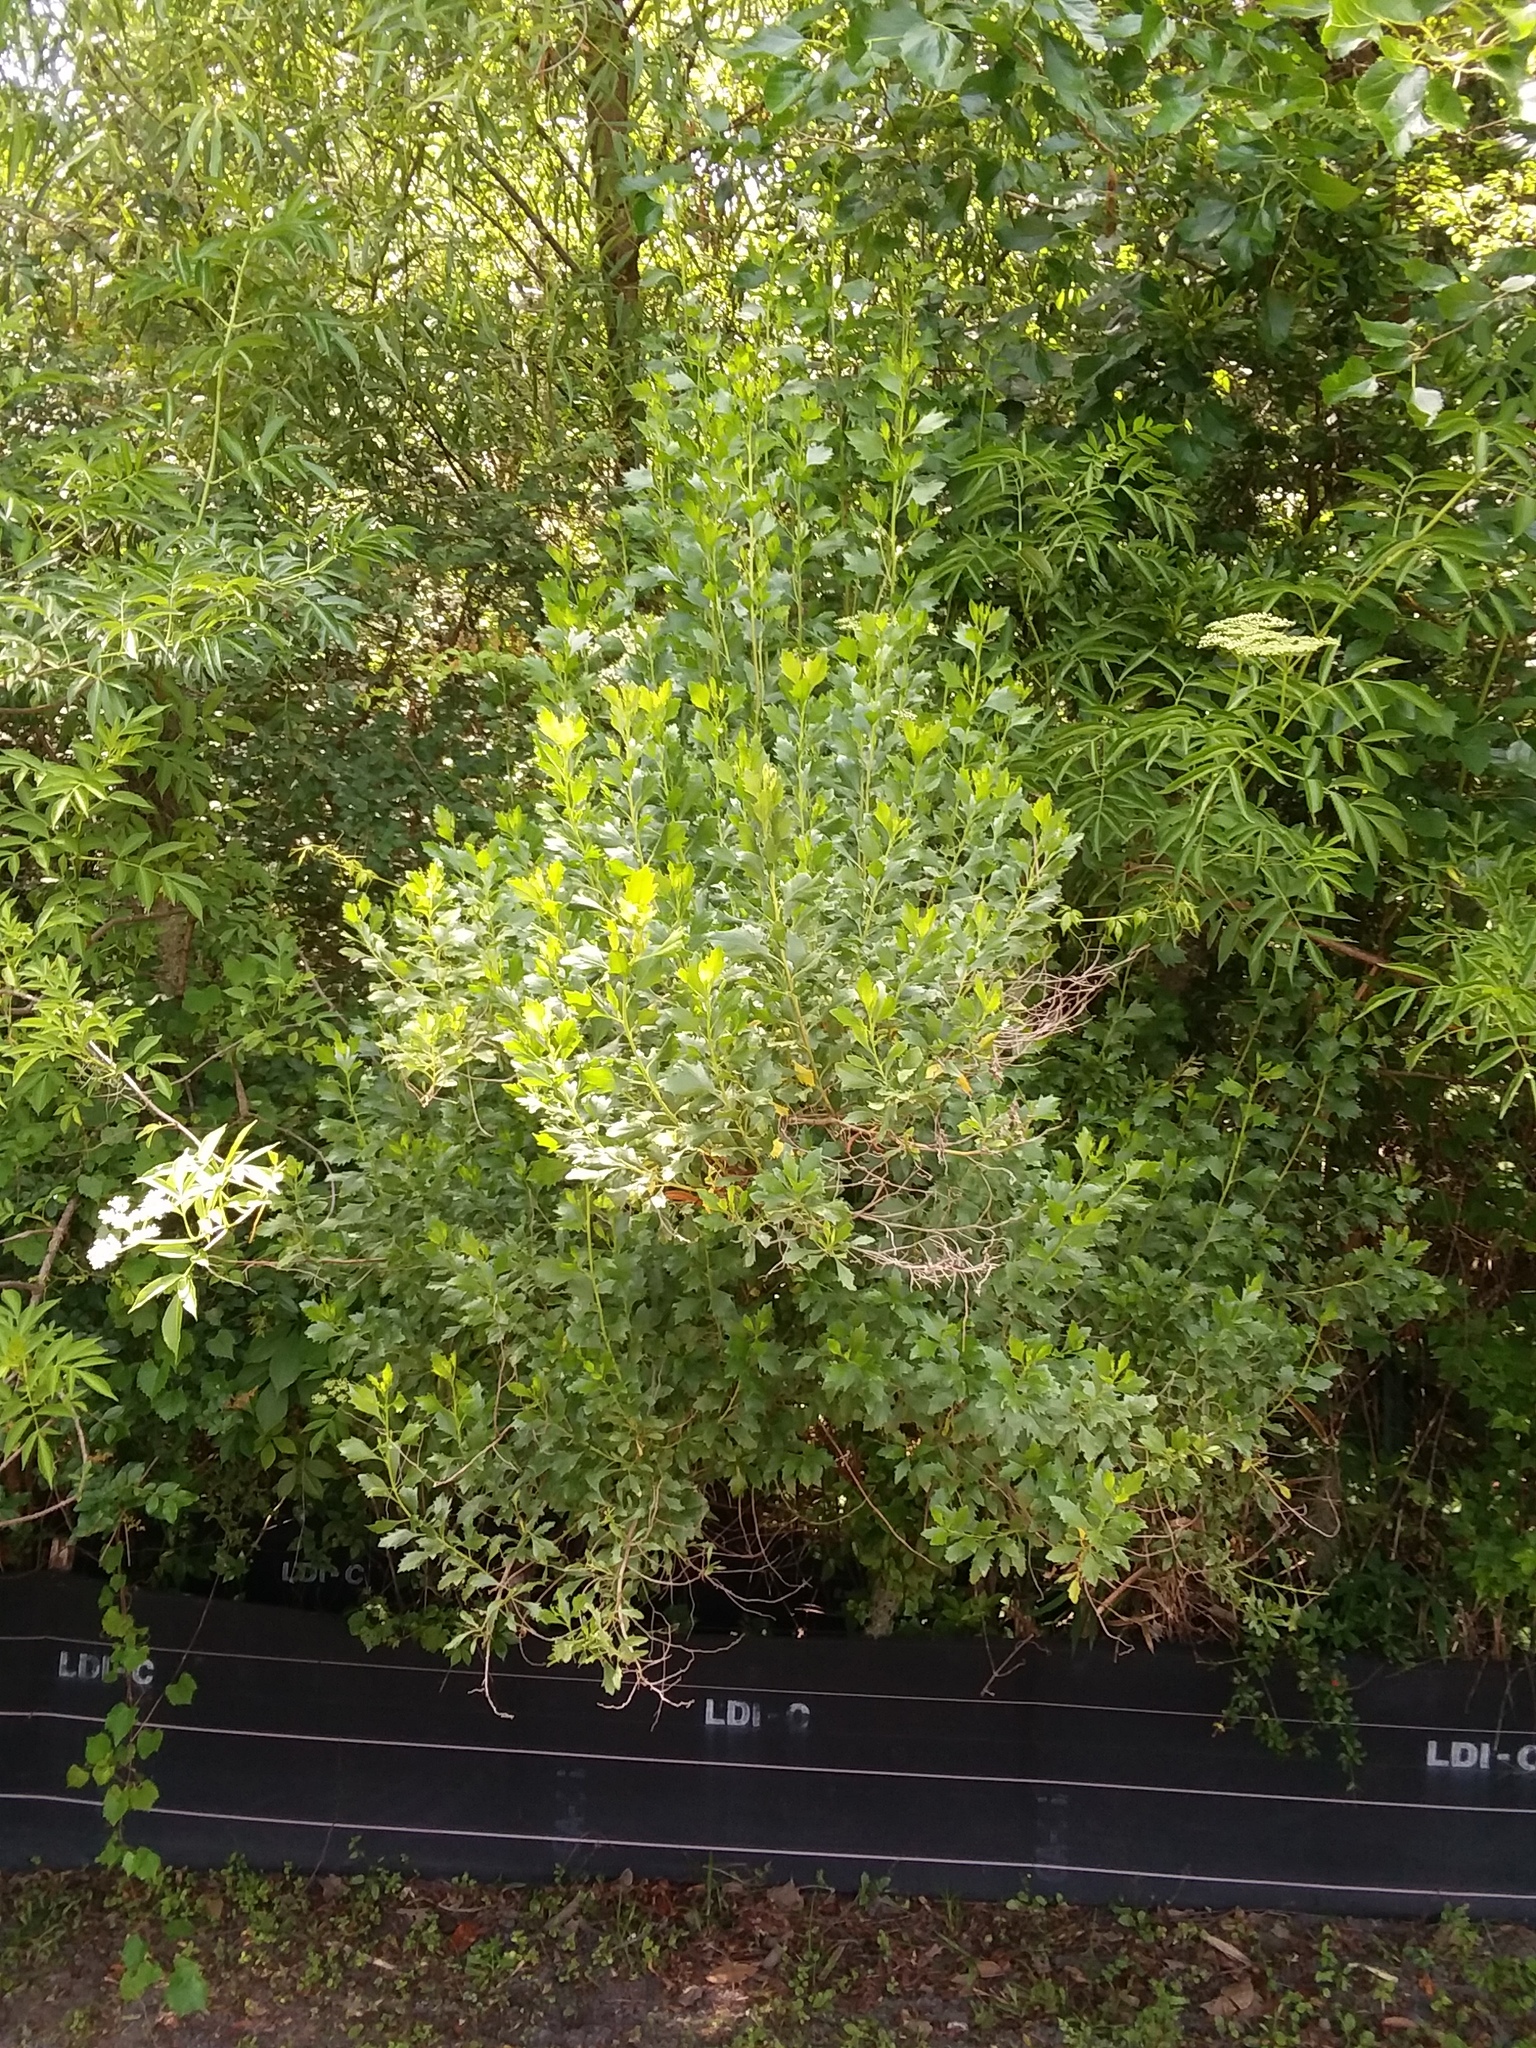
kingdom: Plantae
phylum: Tracheophyta
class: Magnoliopsida
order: Asterales
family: Asteraceae
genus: Baccharis
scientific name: Baccharis halimifolia
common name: Eastern baccharis
